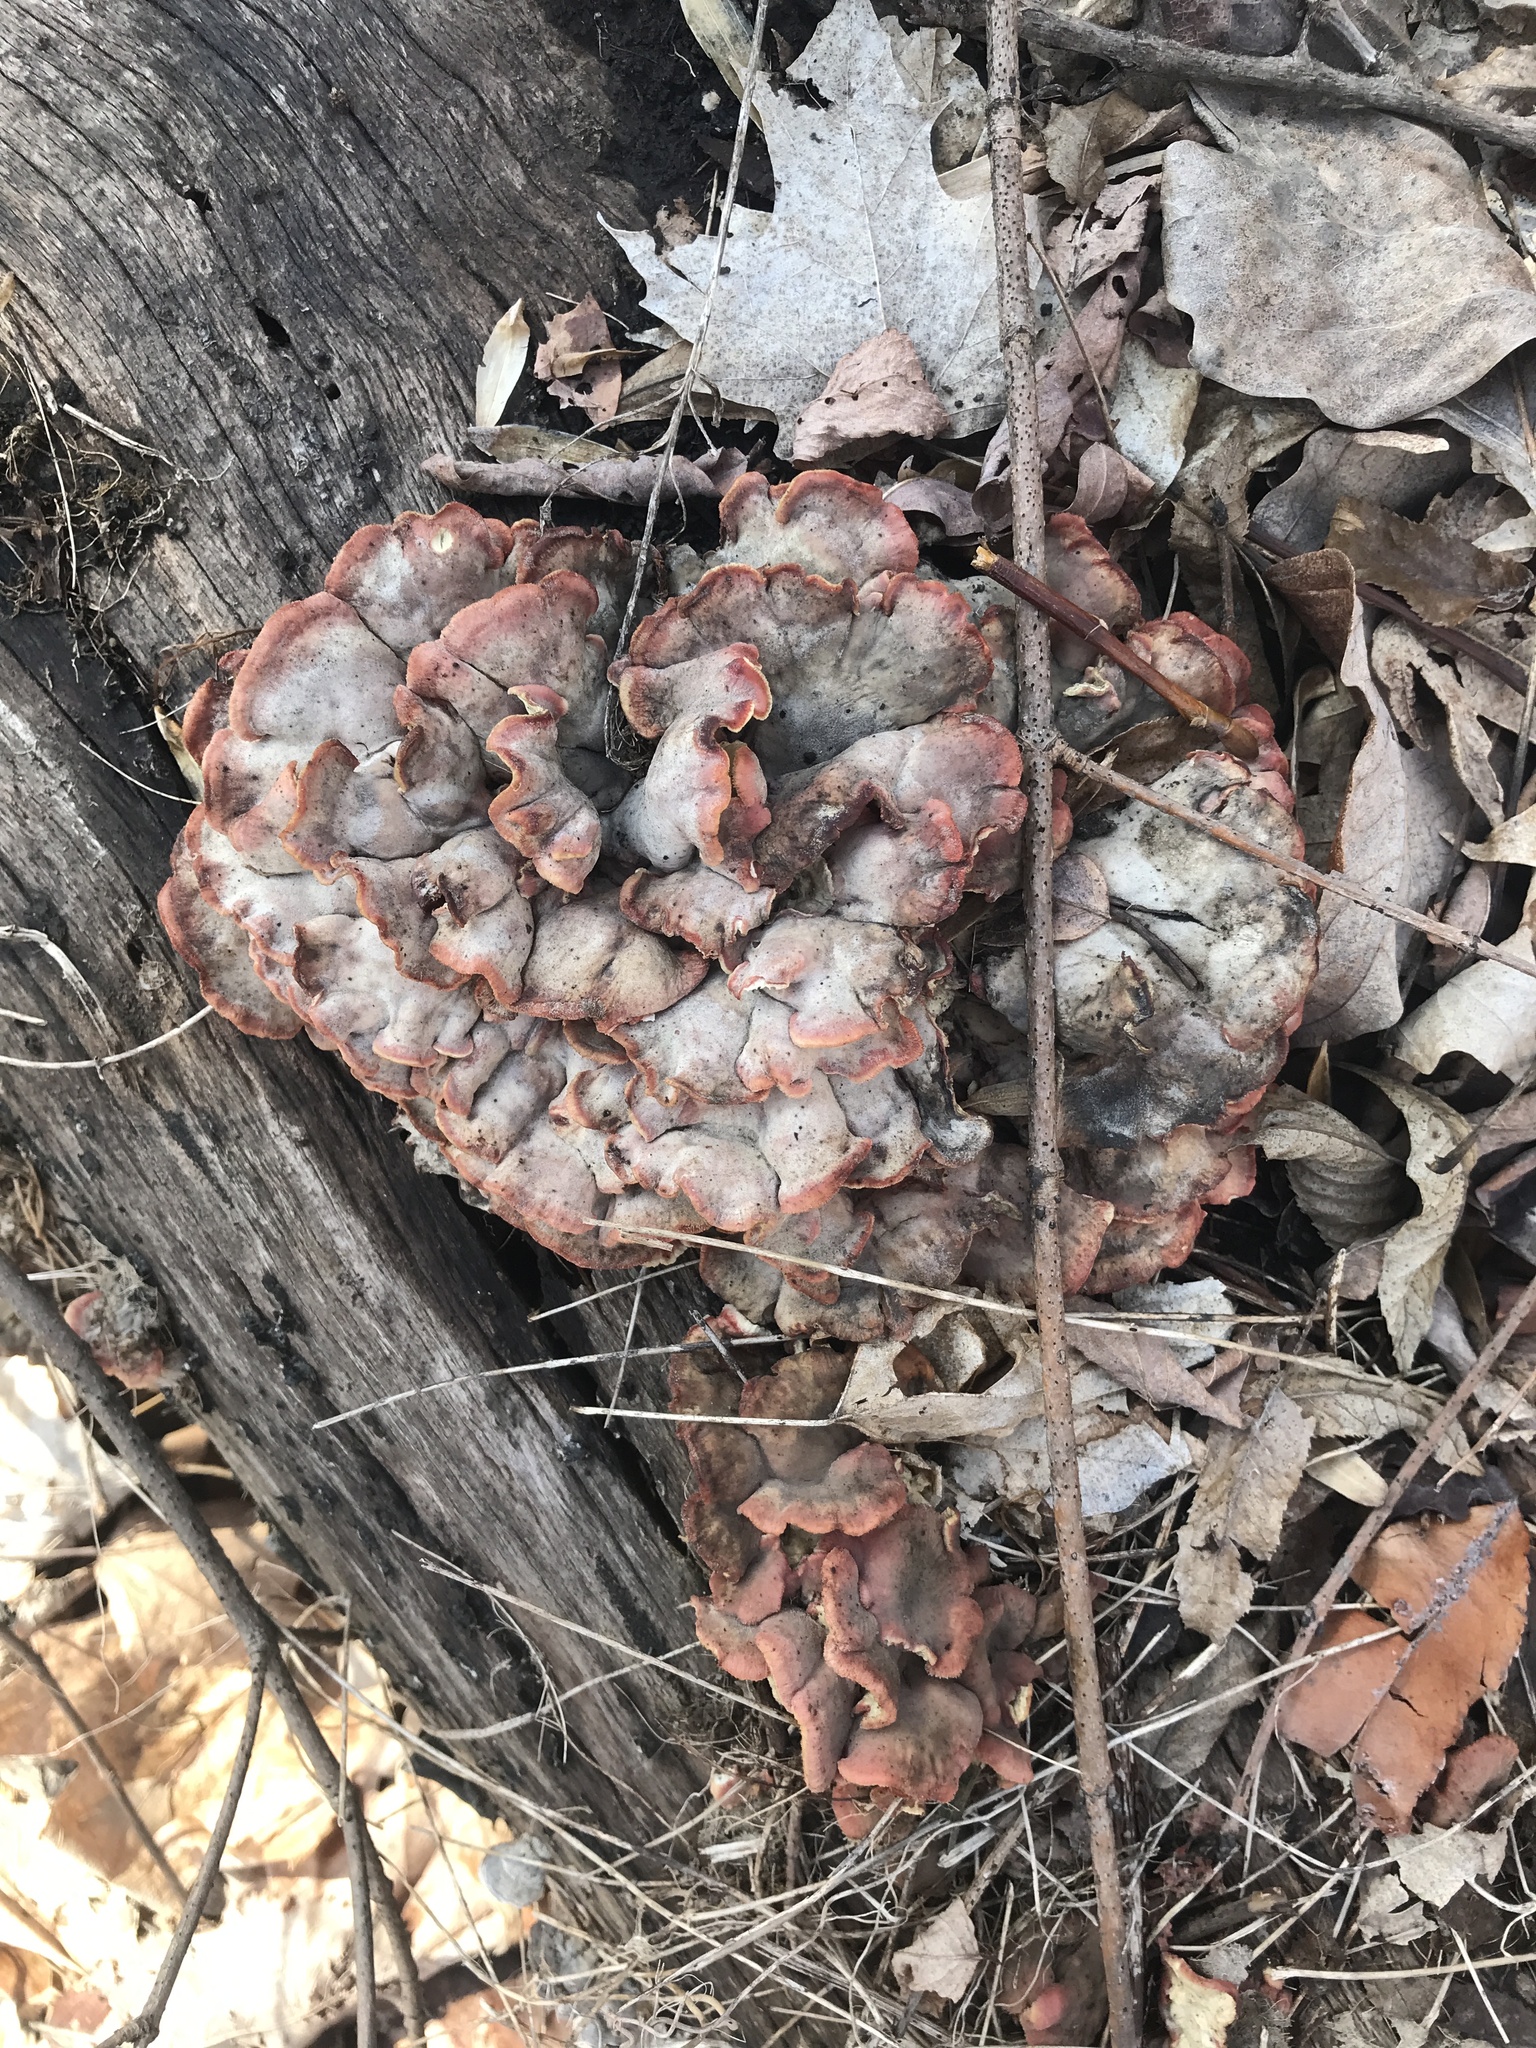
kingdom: Fungi
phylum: Basidiomycota
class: Agaricomycetes
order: Polyporales
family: Irpicaceae
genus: Byssomerulius
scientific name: Byssomerulius incarnatus
